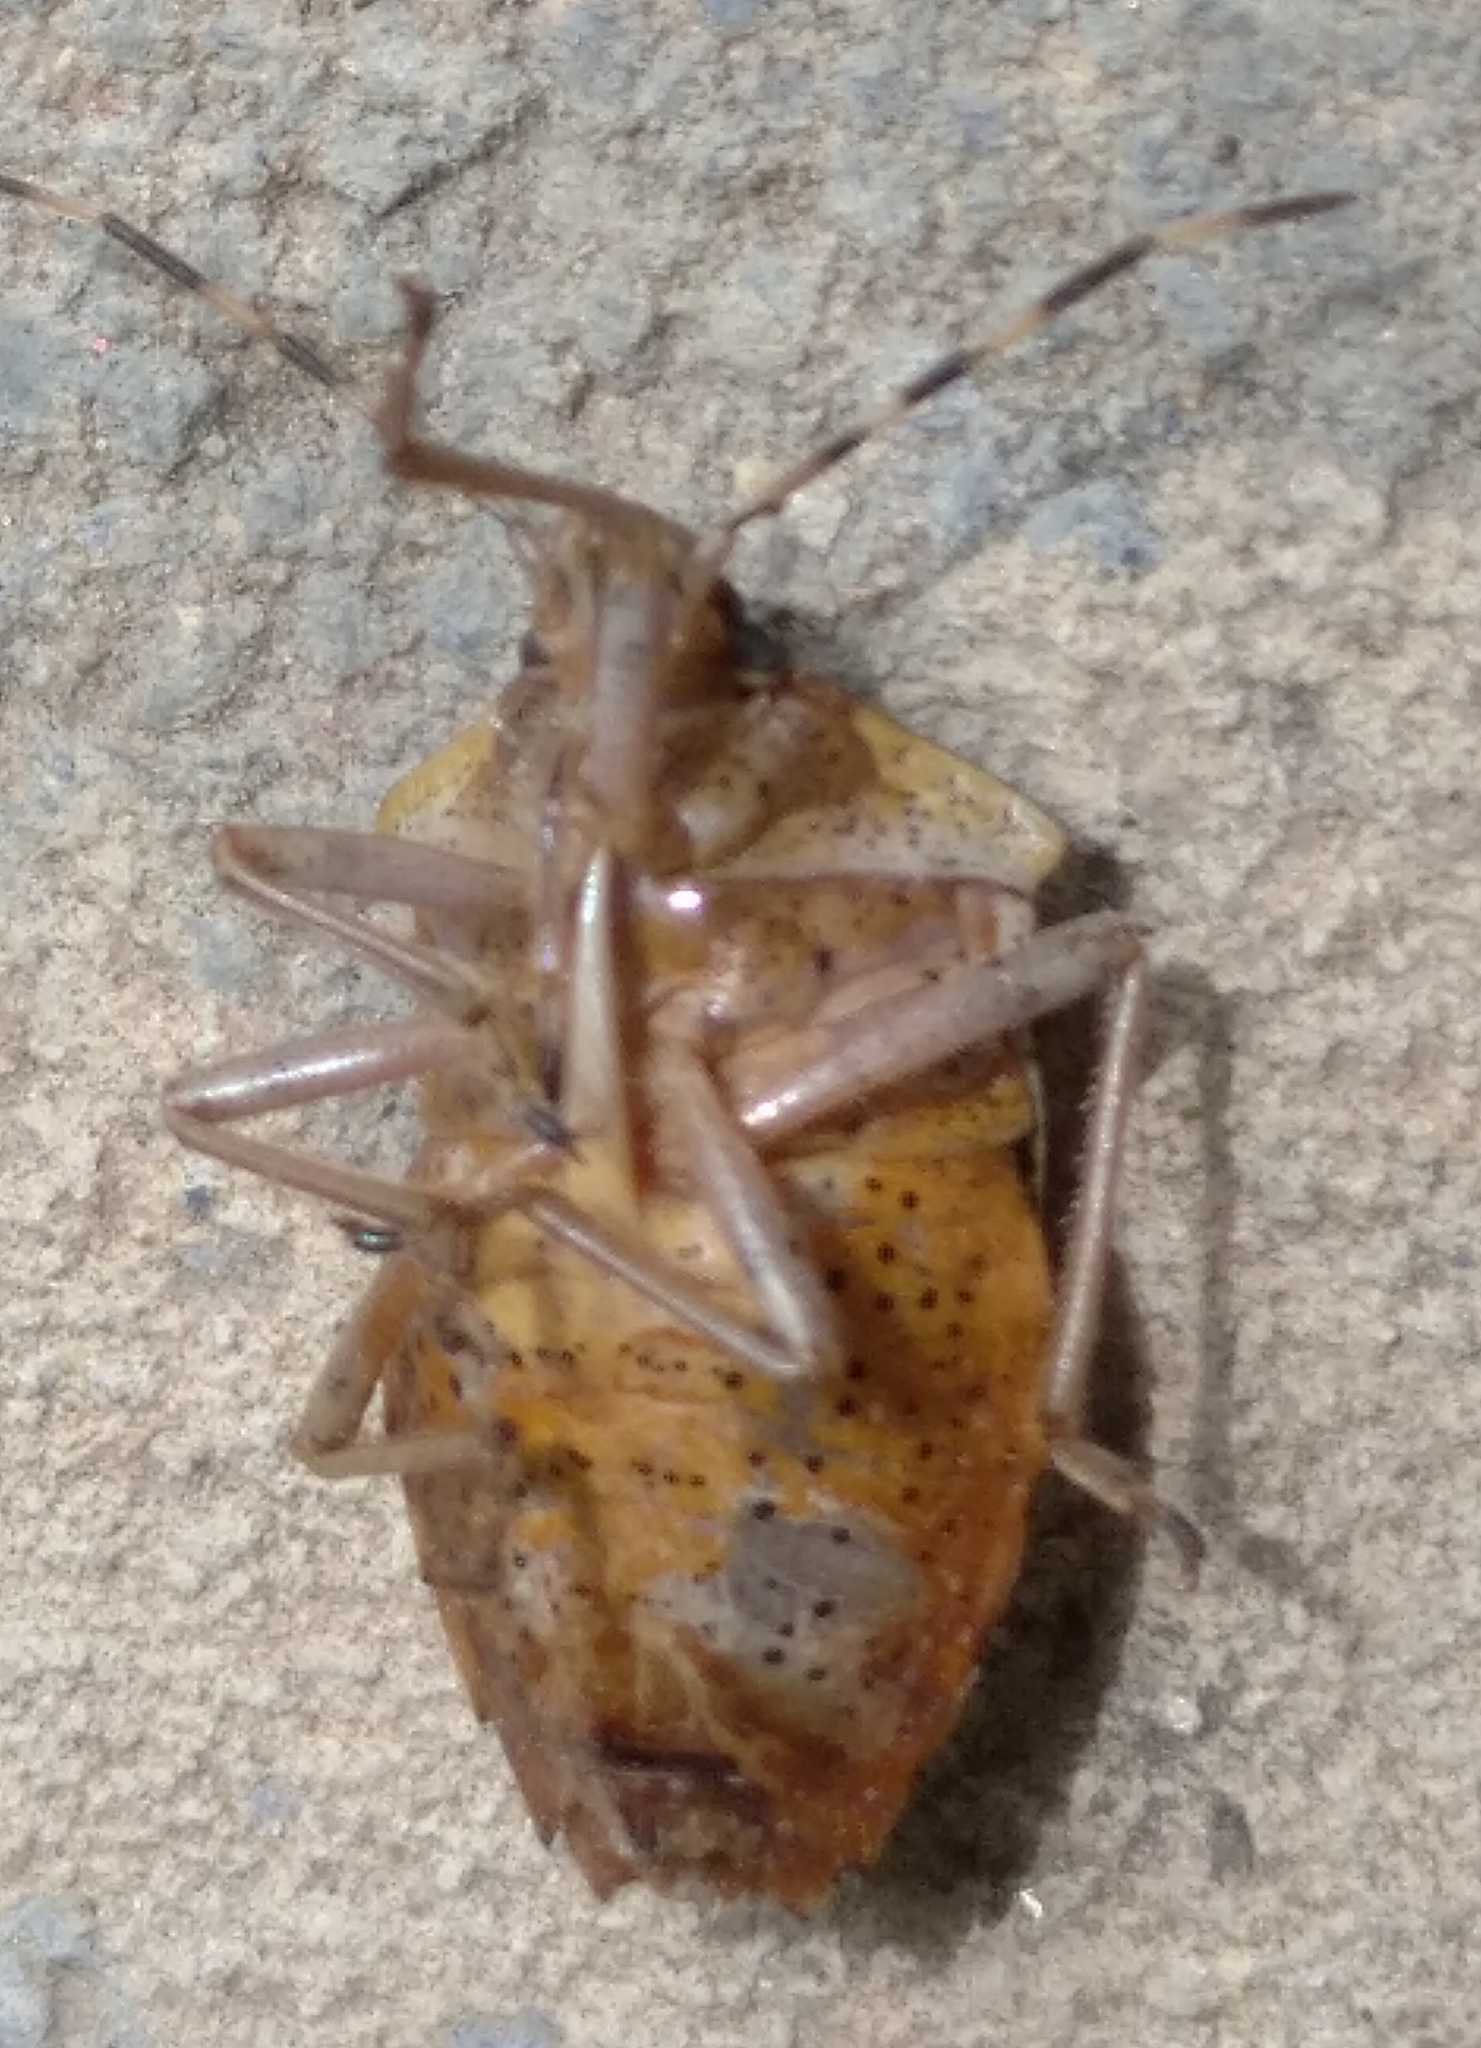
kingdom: Animalia
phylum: Arthropoda
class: Insecta
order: Hemiptera
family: Pentatomidae
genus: Rhaphigaster
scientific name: Rhaphigaster nebulosa
